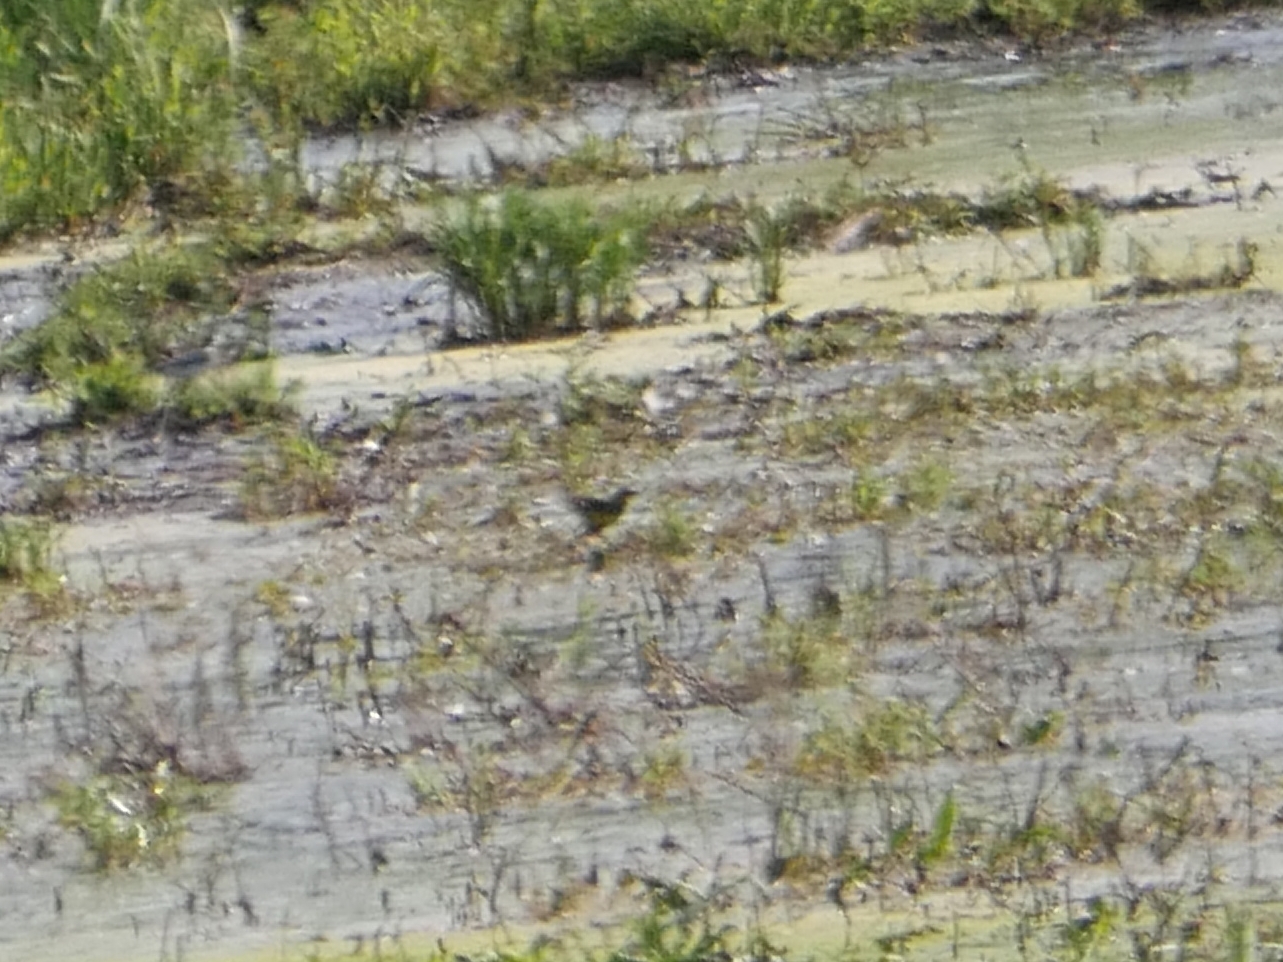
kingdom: Animalia
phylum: Chordata
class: Aves
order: Passeriformes
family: Motacillidae
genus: Motacilla
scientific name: Motacilla flava
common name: Western yellow wagtail
